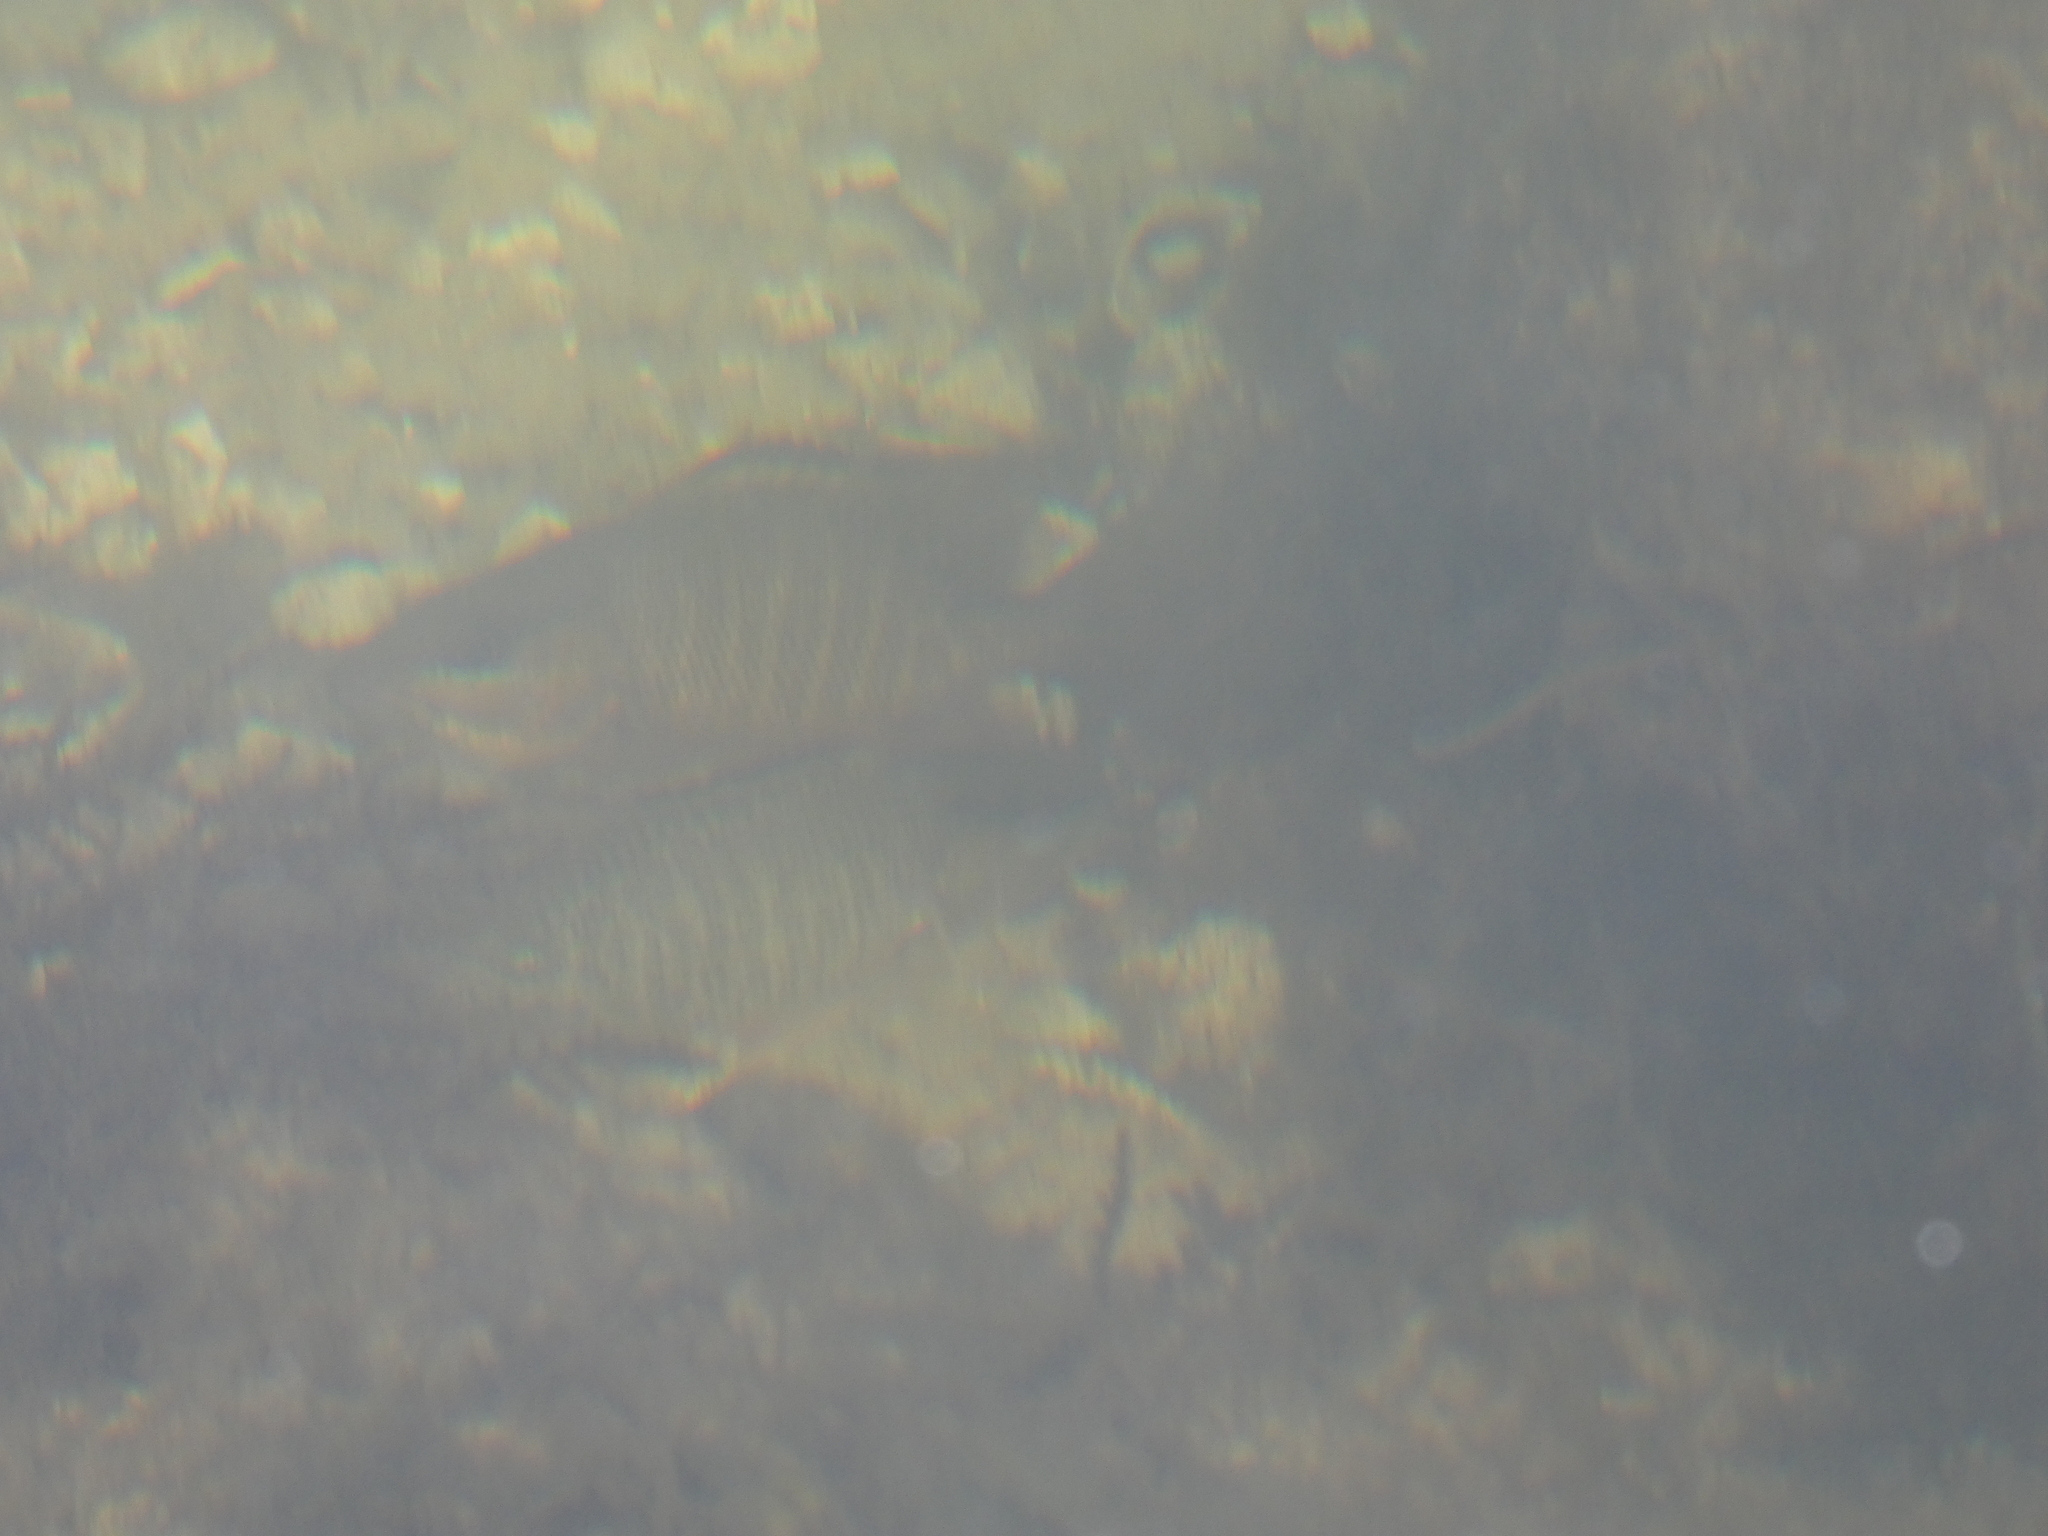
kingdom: Animalia
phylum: Chordata
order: Perciformes
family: Lutjanidae
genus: Lutjanus
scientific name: Lutjanus griseus
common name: Gray snapper
